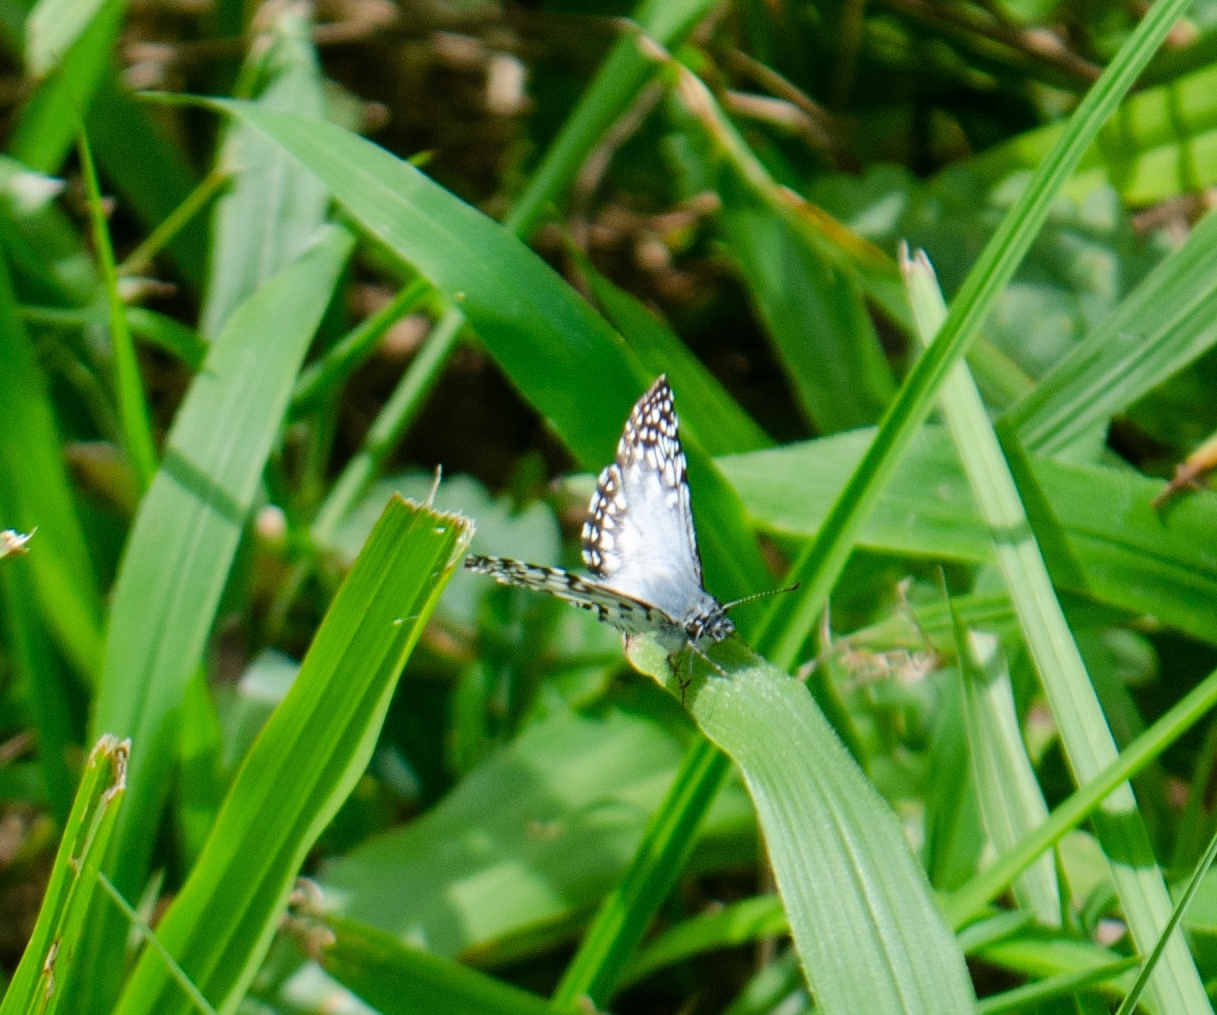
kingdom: Animalia
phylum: Arthropoda
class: Insecta
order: Lepidoptera
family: Hesperiidae
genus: Pyrgus
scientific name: Pyrgus oileus
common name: Tropical checkered-skipper
